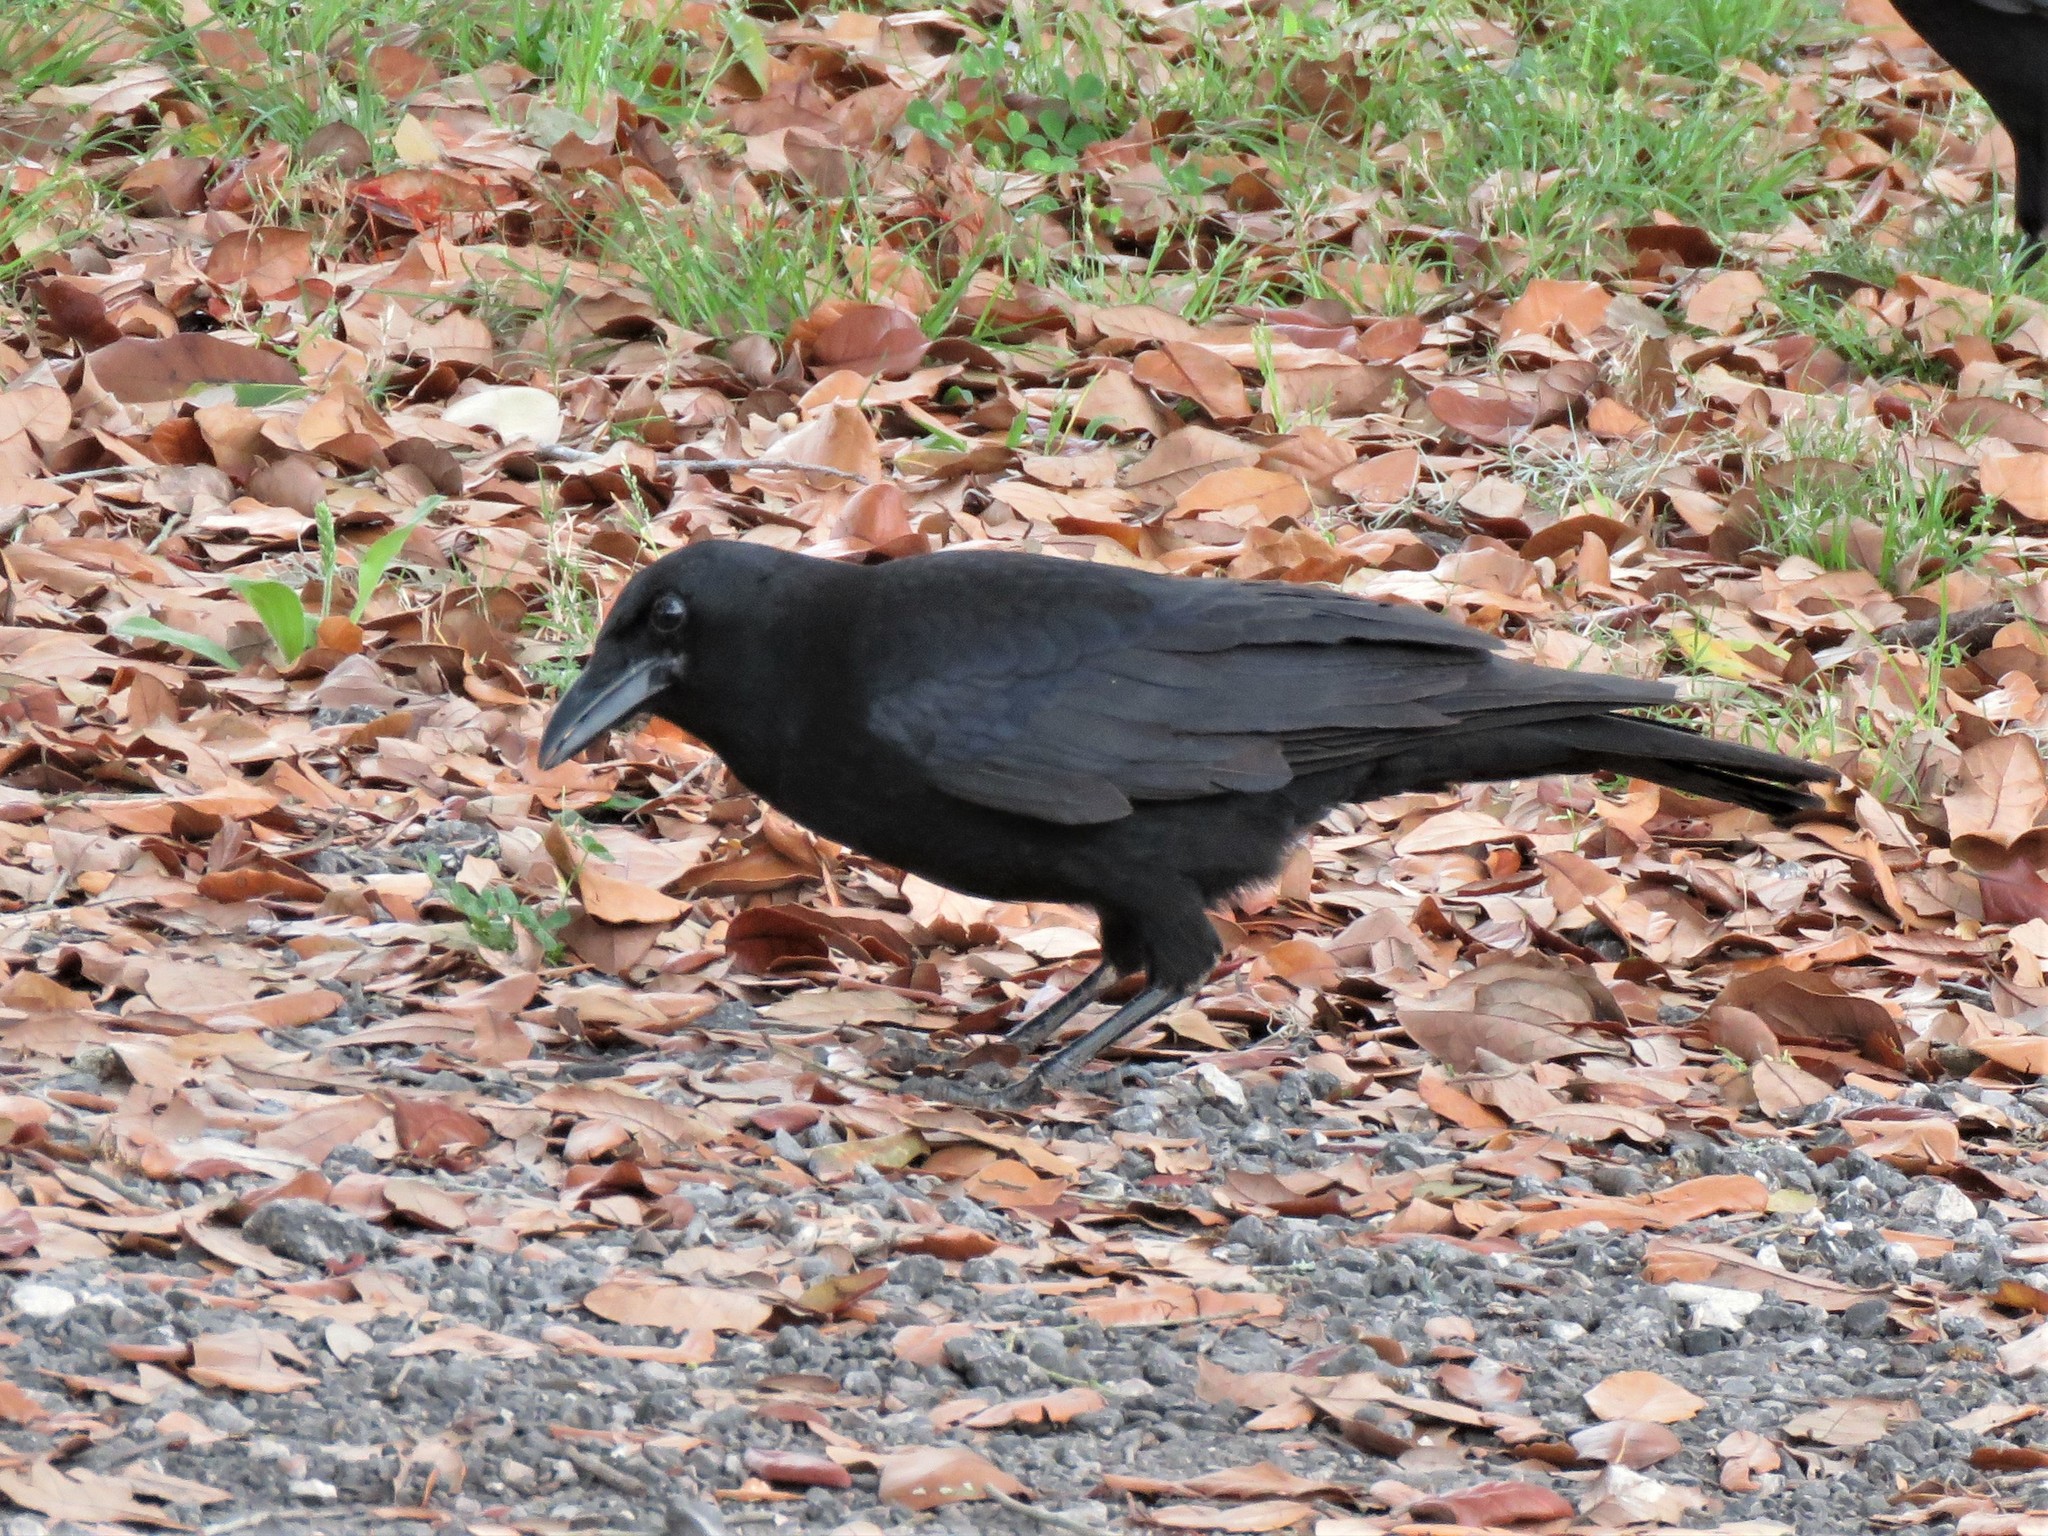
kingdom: Animalia
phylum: Chordata
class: Aves
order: Passeriformes
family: Corvidae
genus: Corvus
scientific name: Corvus brachyrhynchos
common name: American crow
